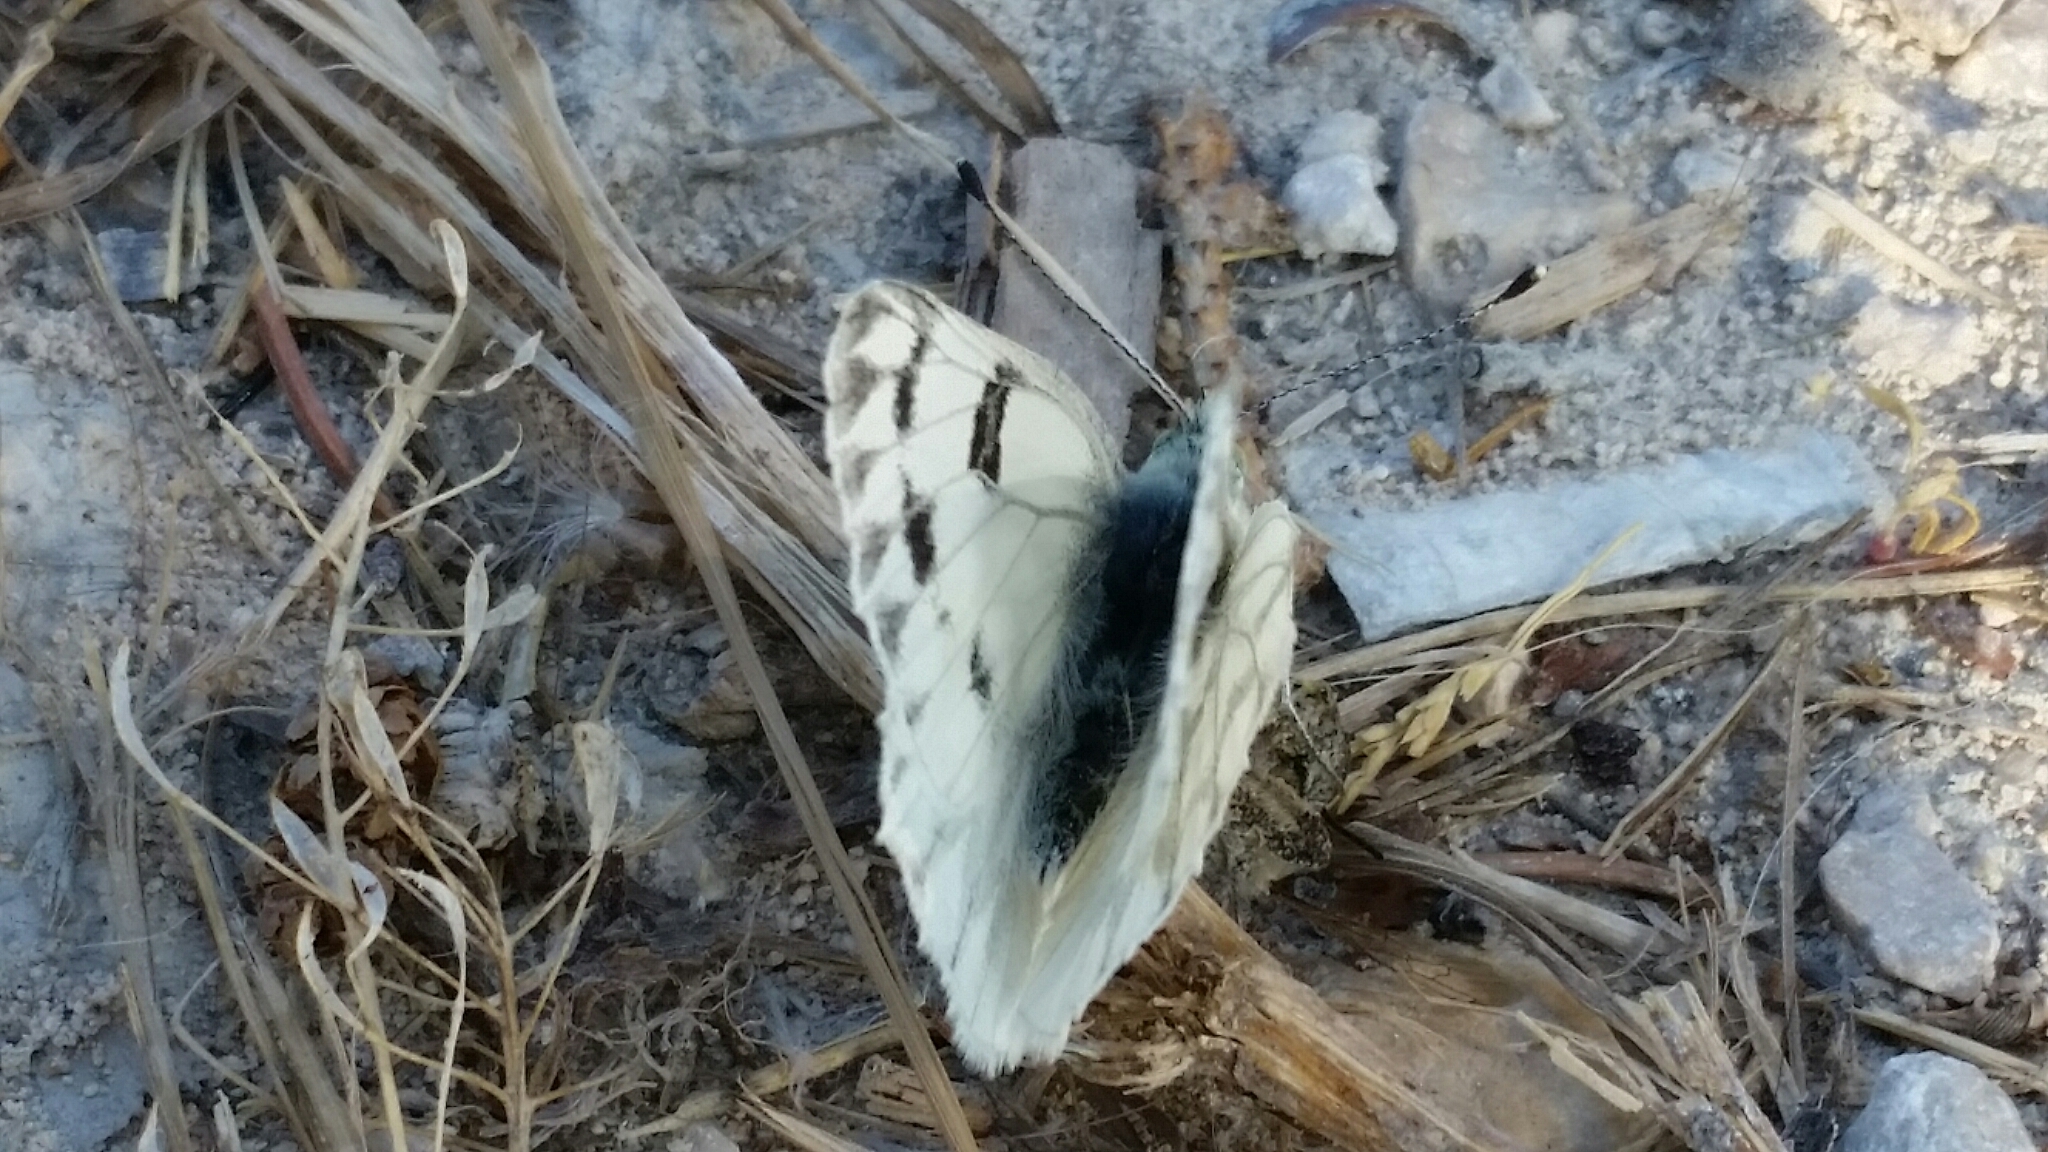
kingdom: Animalia
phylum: Arthropoda
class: Insecta
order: Lepidoptera
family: Pieridae
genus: Pontia
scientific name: Pontia occidentalis
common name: Western white
